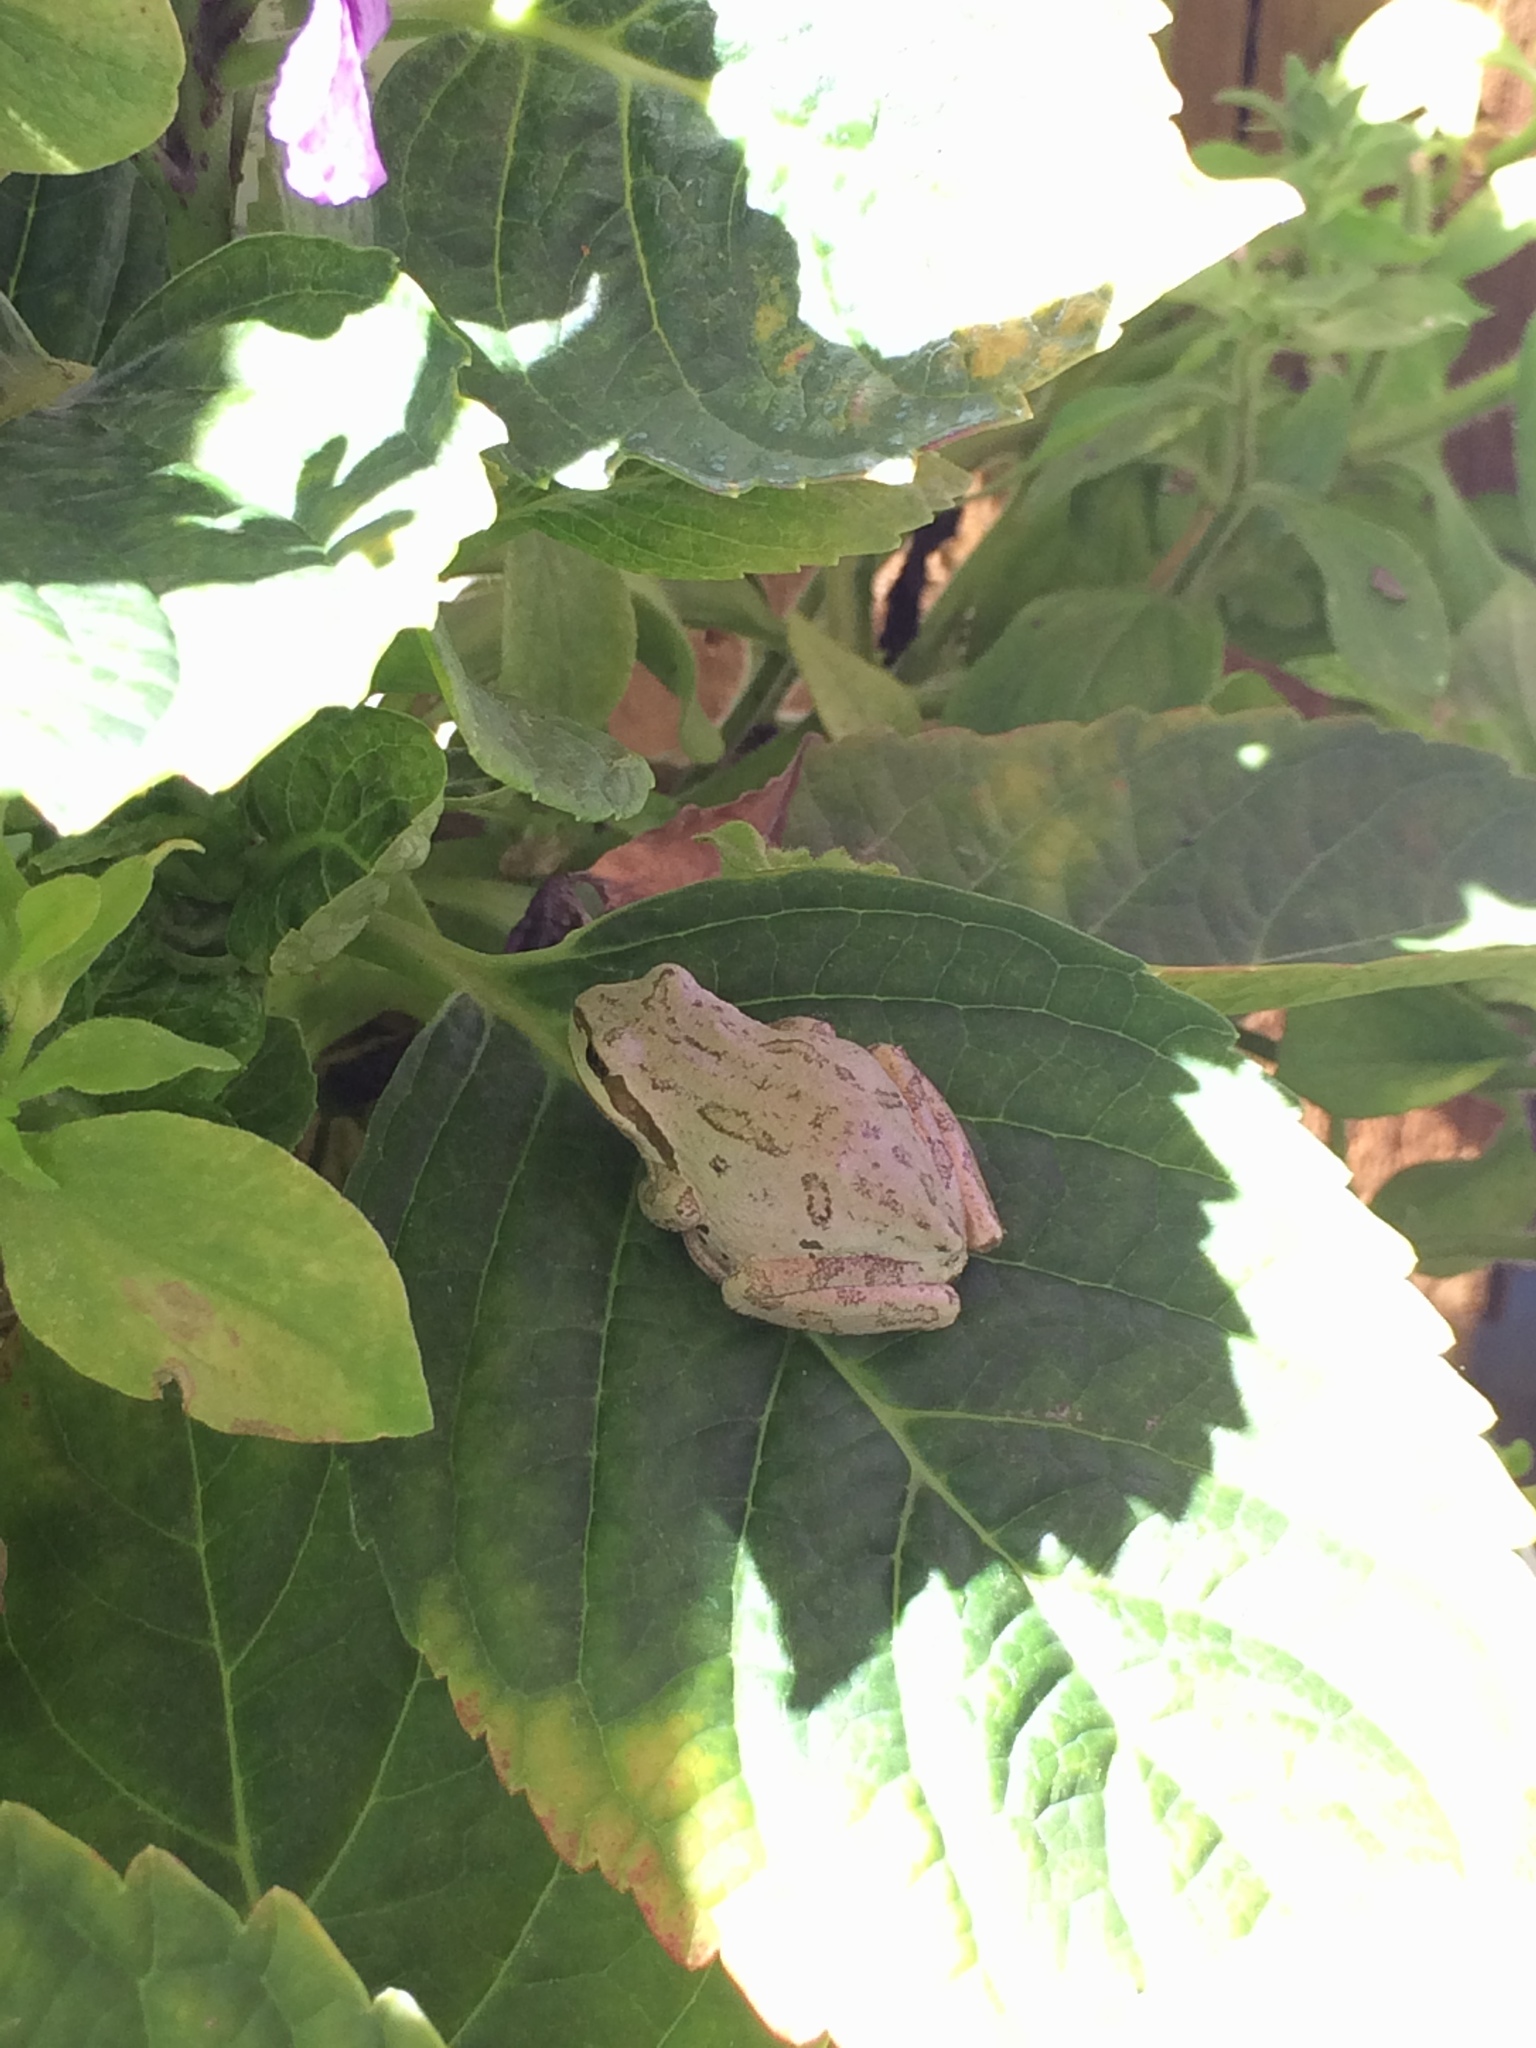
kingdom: Animalia
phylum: Chordata
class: Amphibia
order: Anura
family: Hylidae
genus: Pseudacris
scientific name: Pseudacris regilla
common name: Pacific chorus frog
